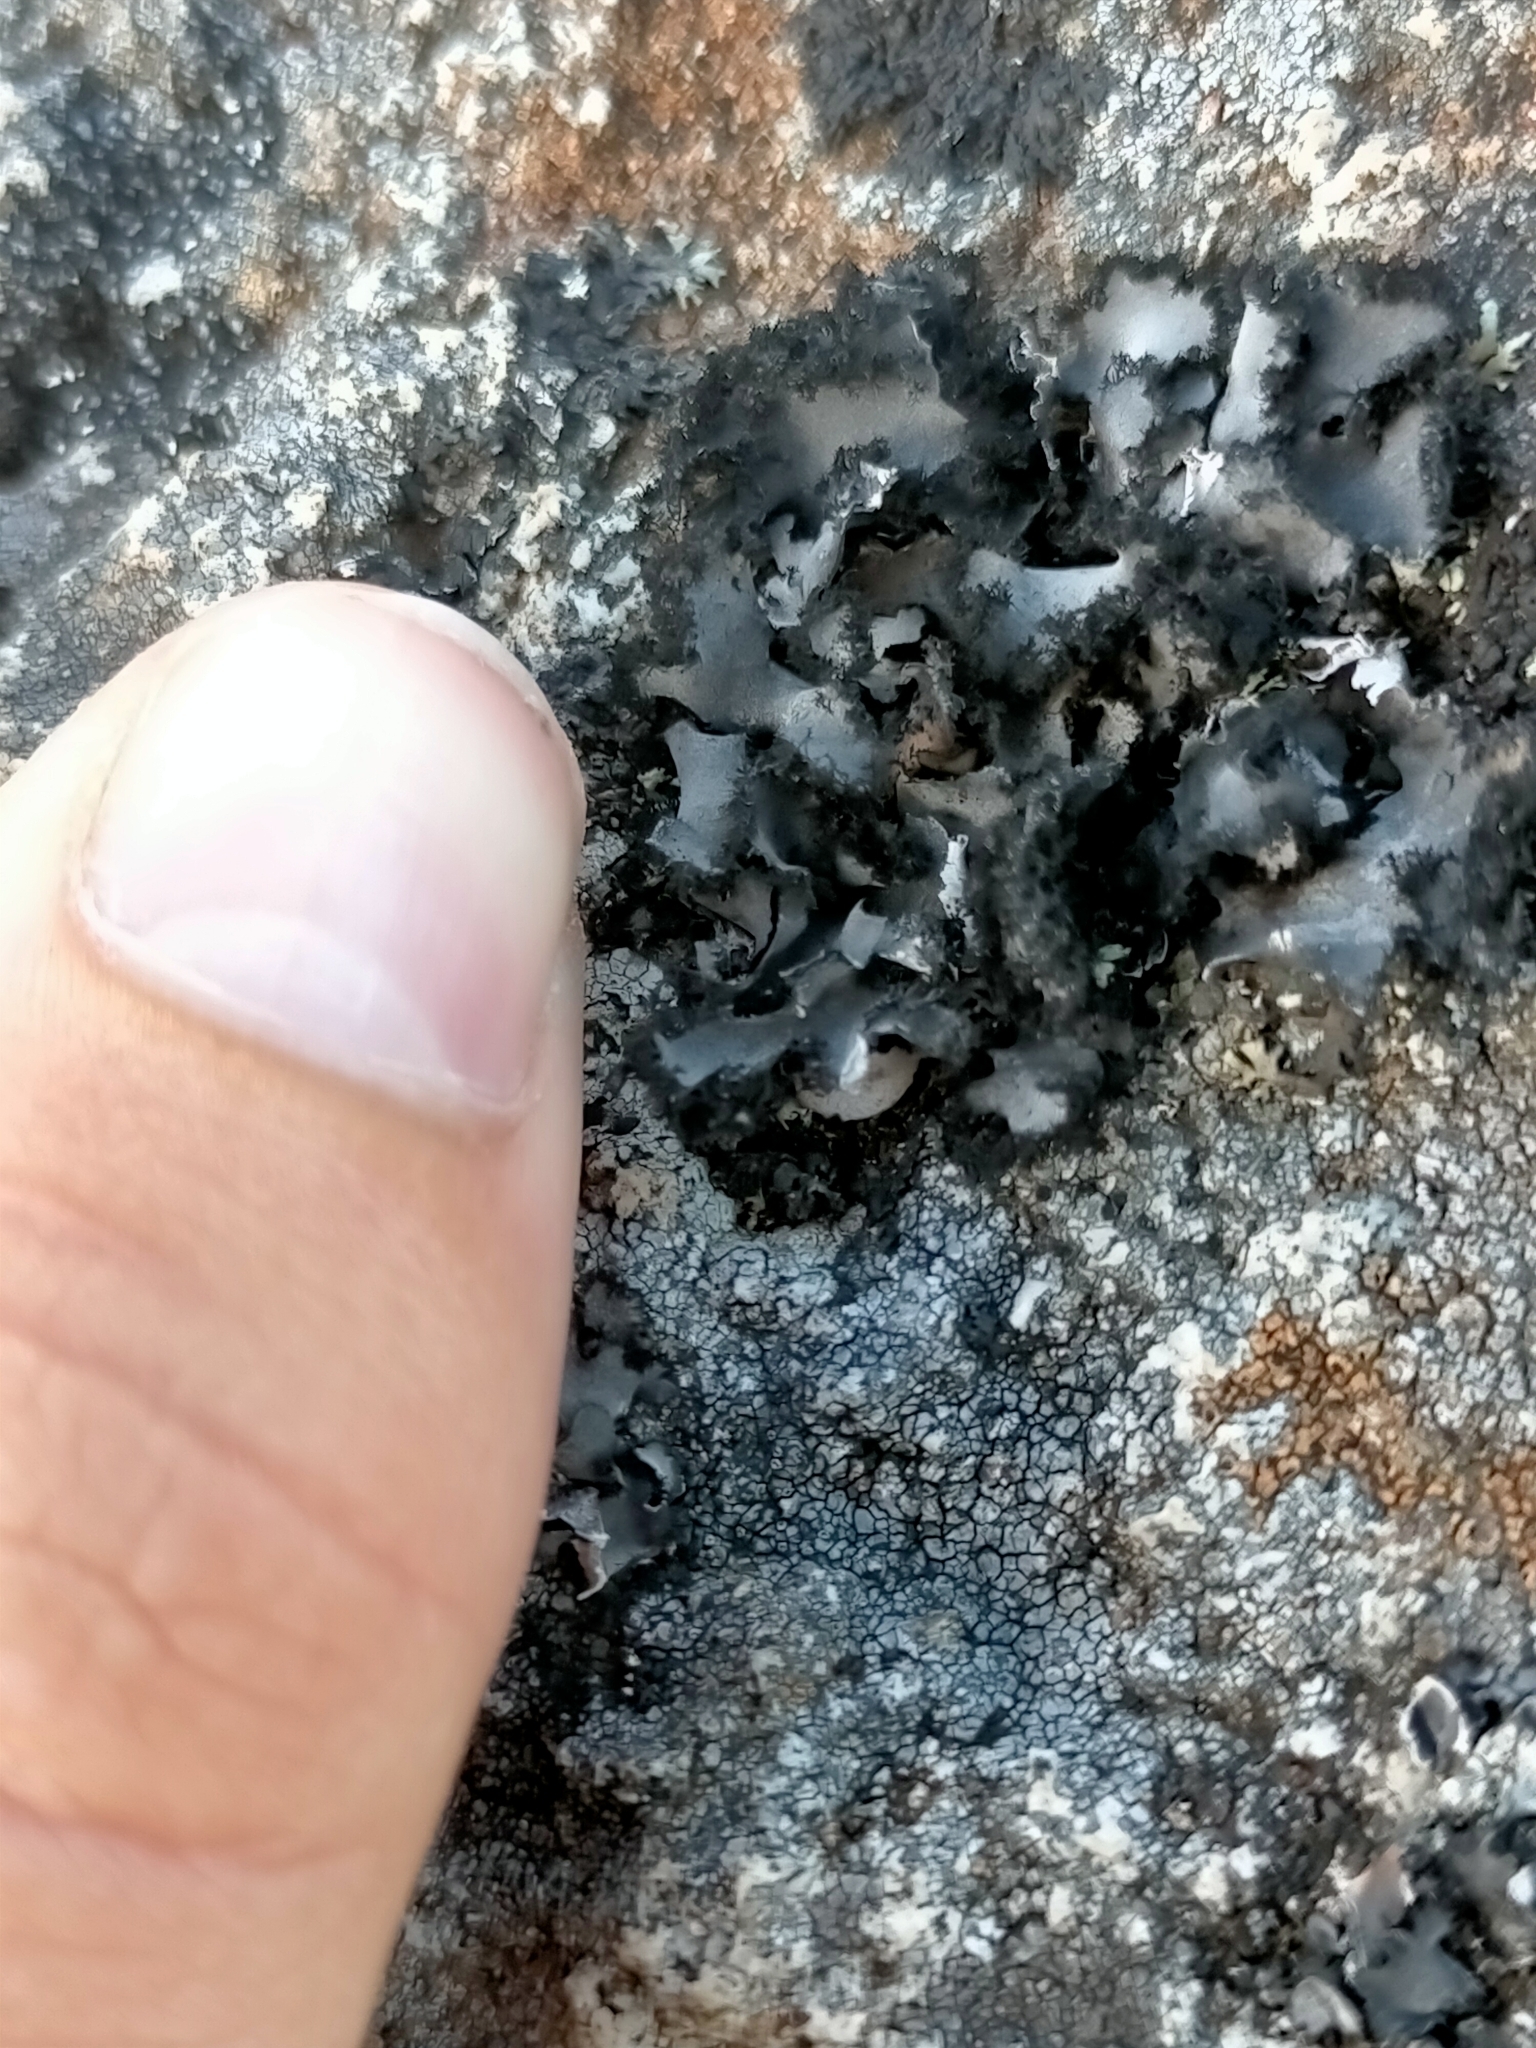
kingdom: Fungi
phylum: Ascomycota
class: Lecanoromycetes
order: Umbilicariales
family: Umbilicariaceae
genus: Umbilicaria
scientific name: Umbilicaria cylindrica
